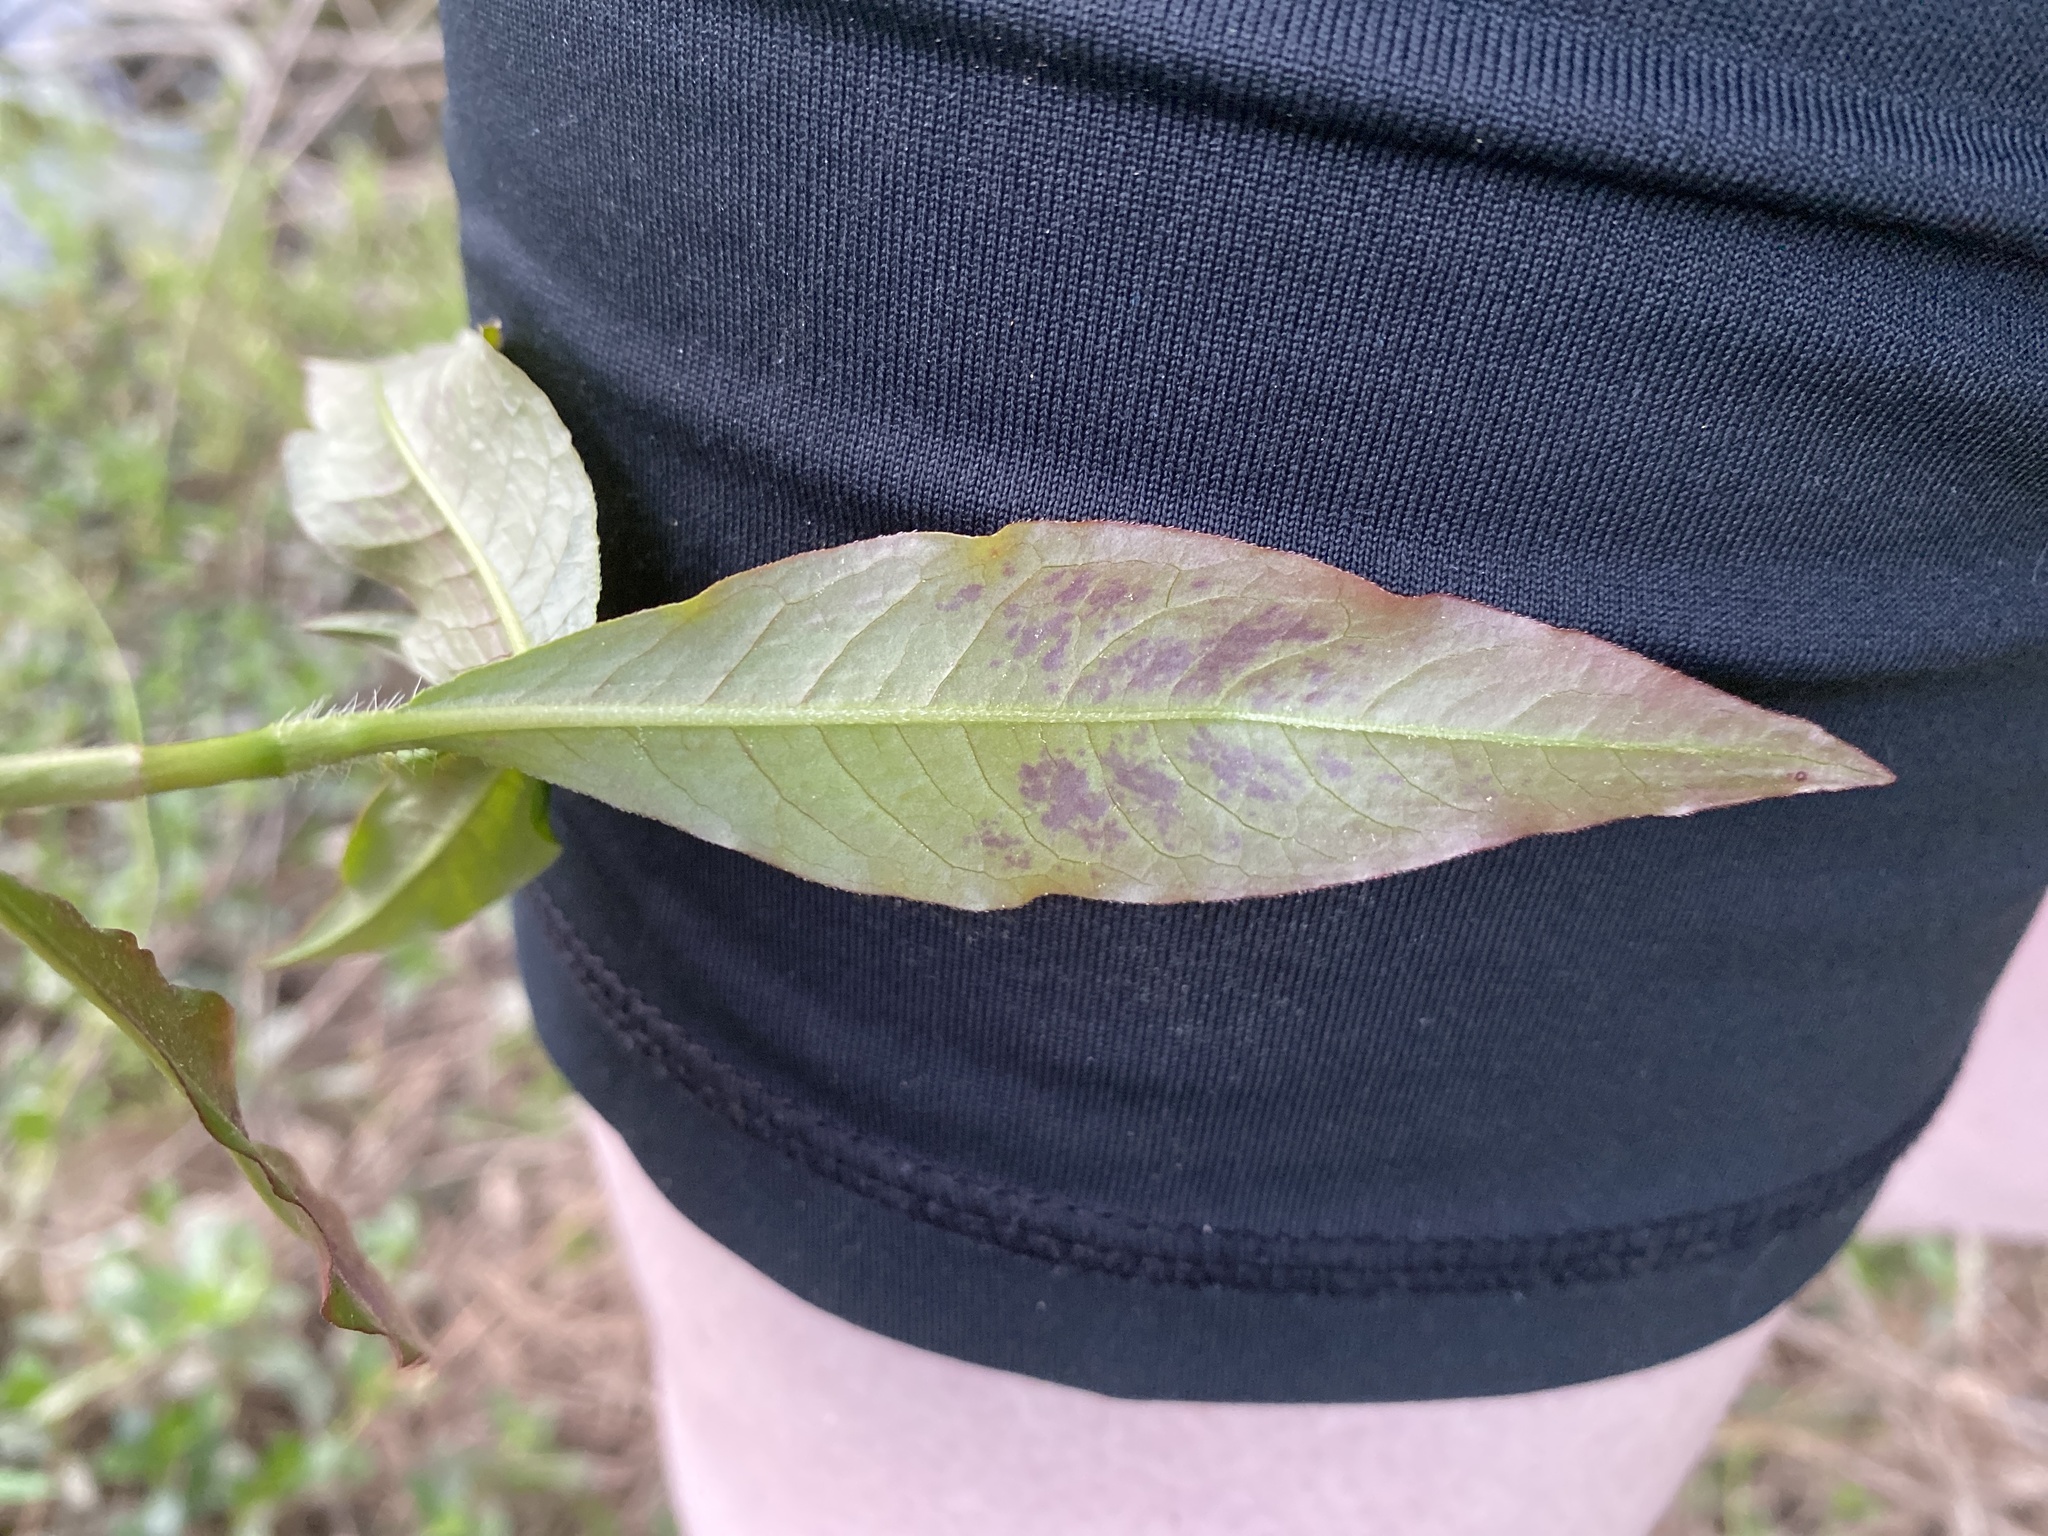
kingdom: Plantae
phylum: Tracheophyta
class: Magnoliopsida
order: Caryophyllales
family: Polygonaceae
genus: Persicaria
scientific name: Persicaria virginiana
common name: Jumpseed
